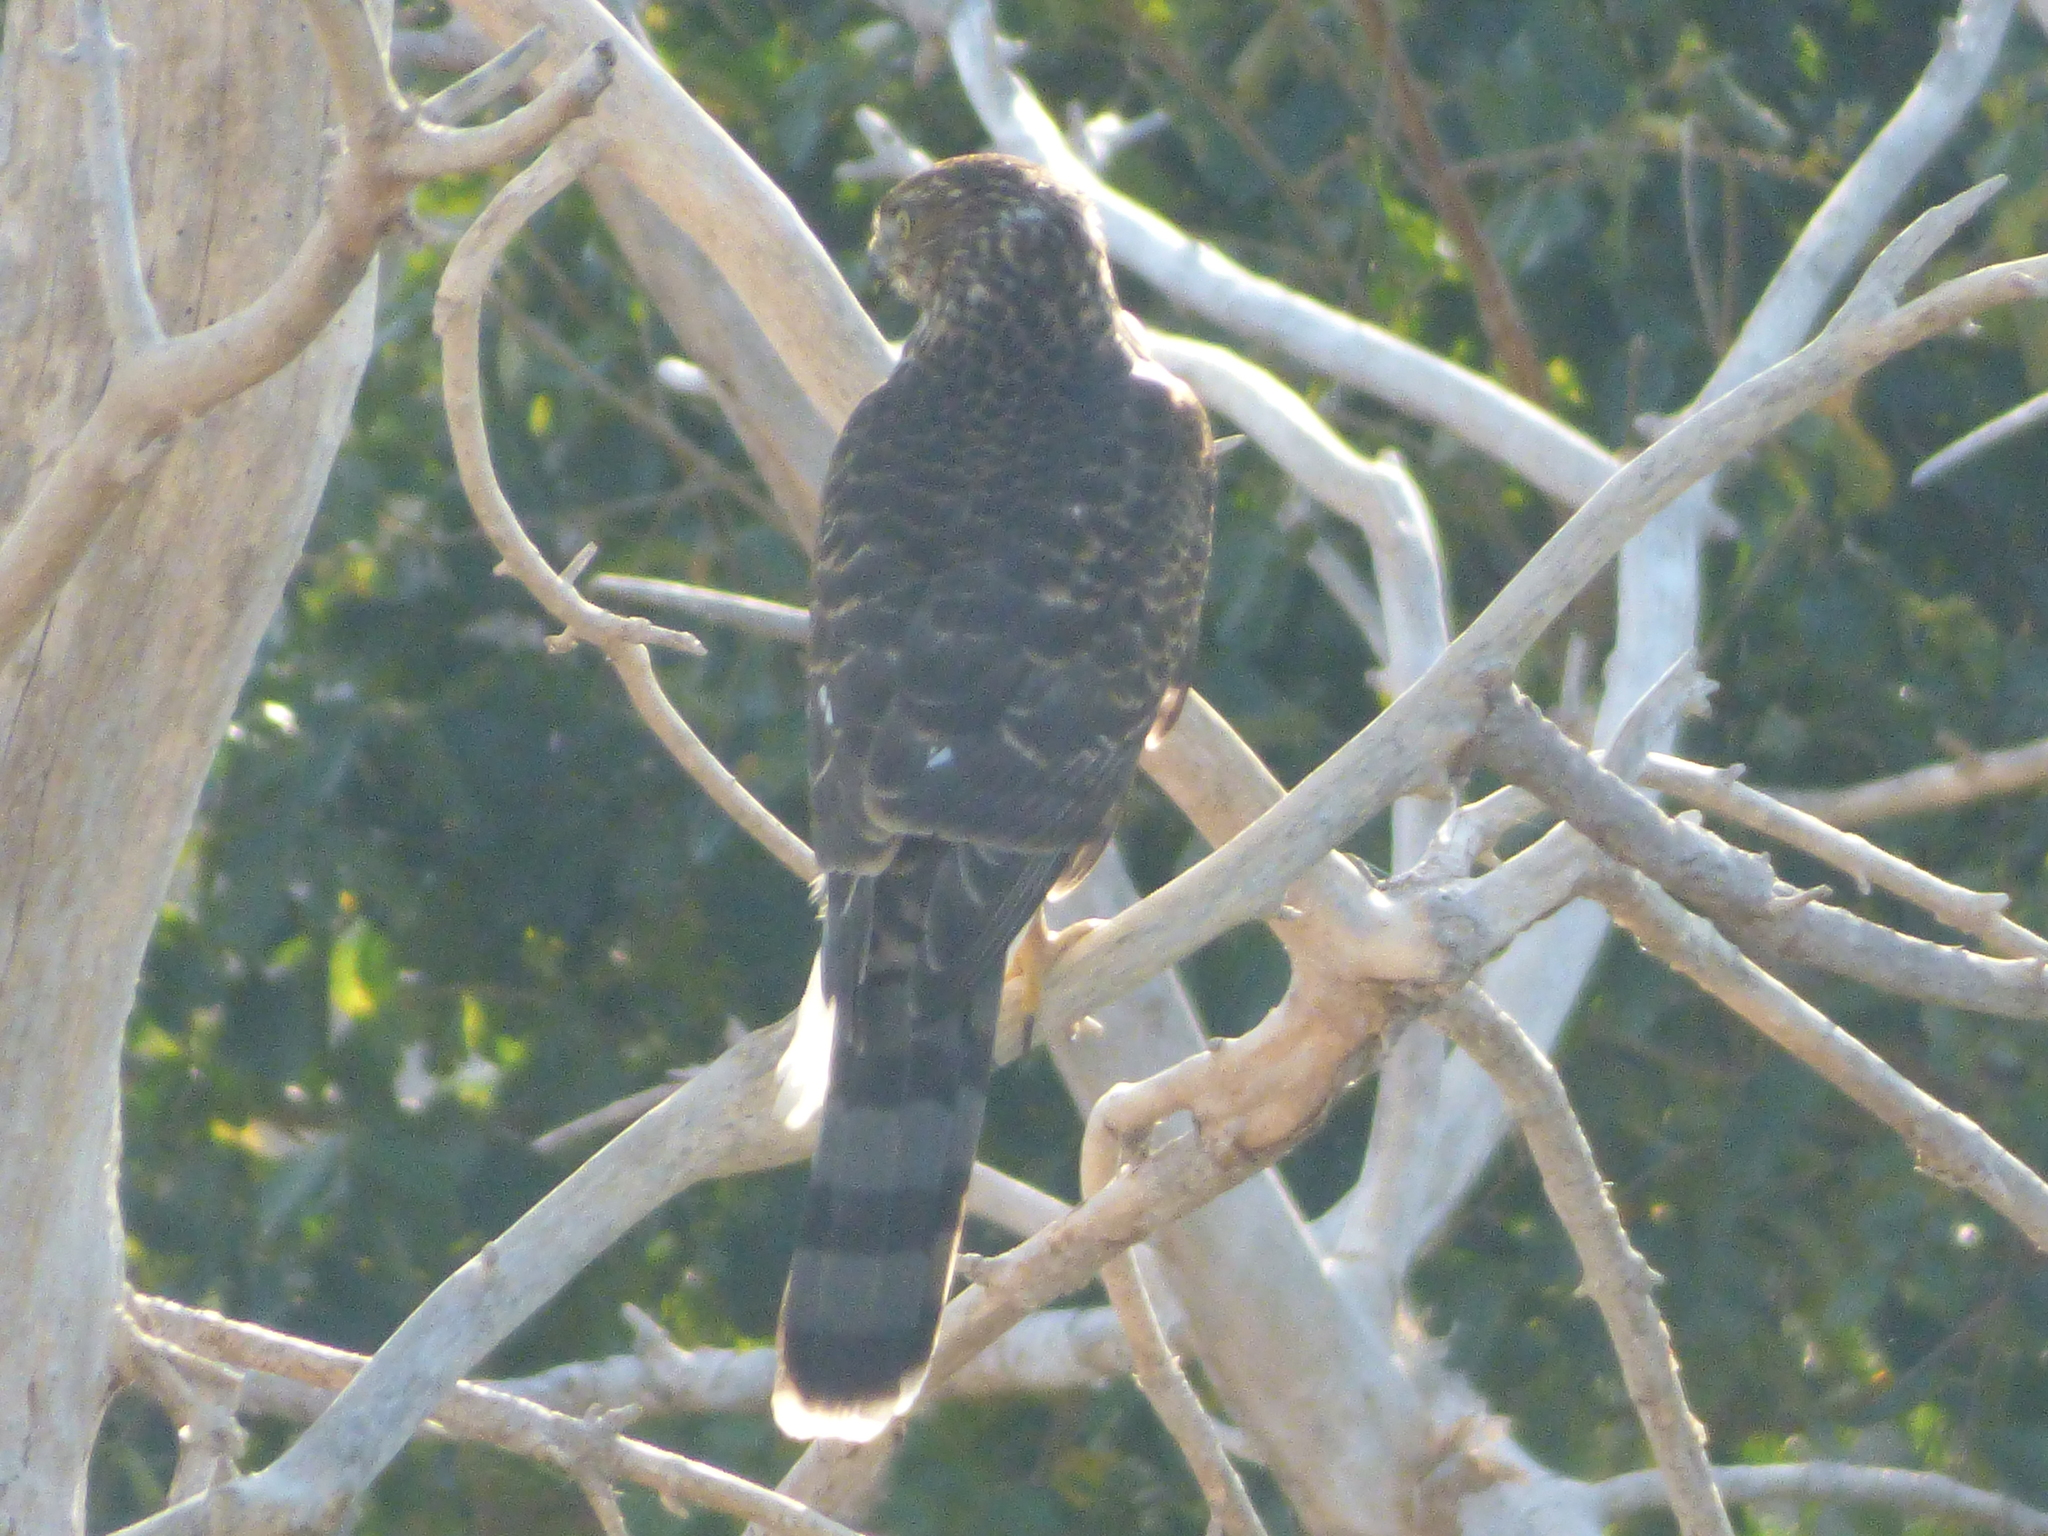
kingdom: Animalia
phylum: Chordata
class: Aves
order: Accipitriformes
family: Accipitridae
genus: Accipiter
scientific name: Accipiter cooperii
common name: Cooper's hawk
